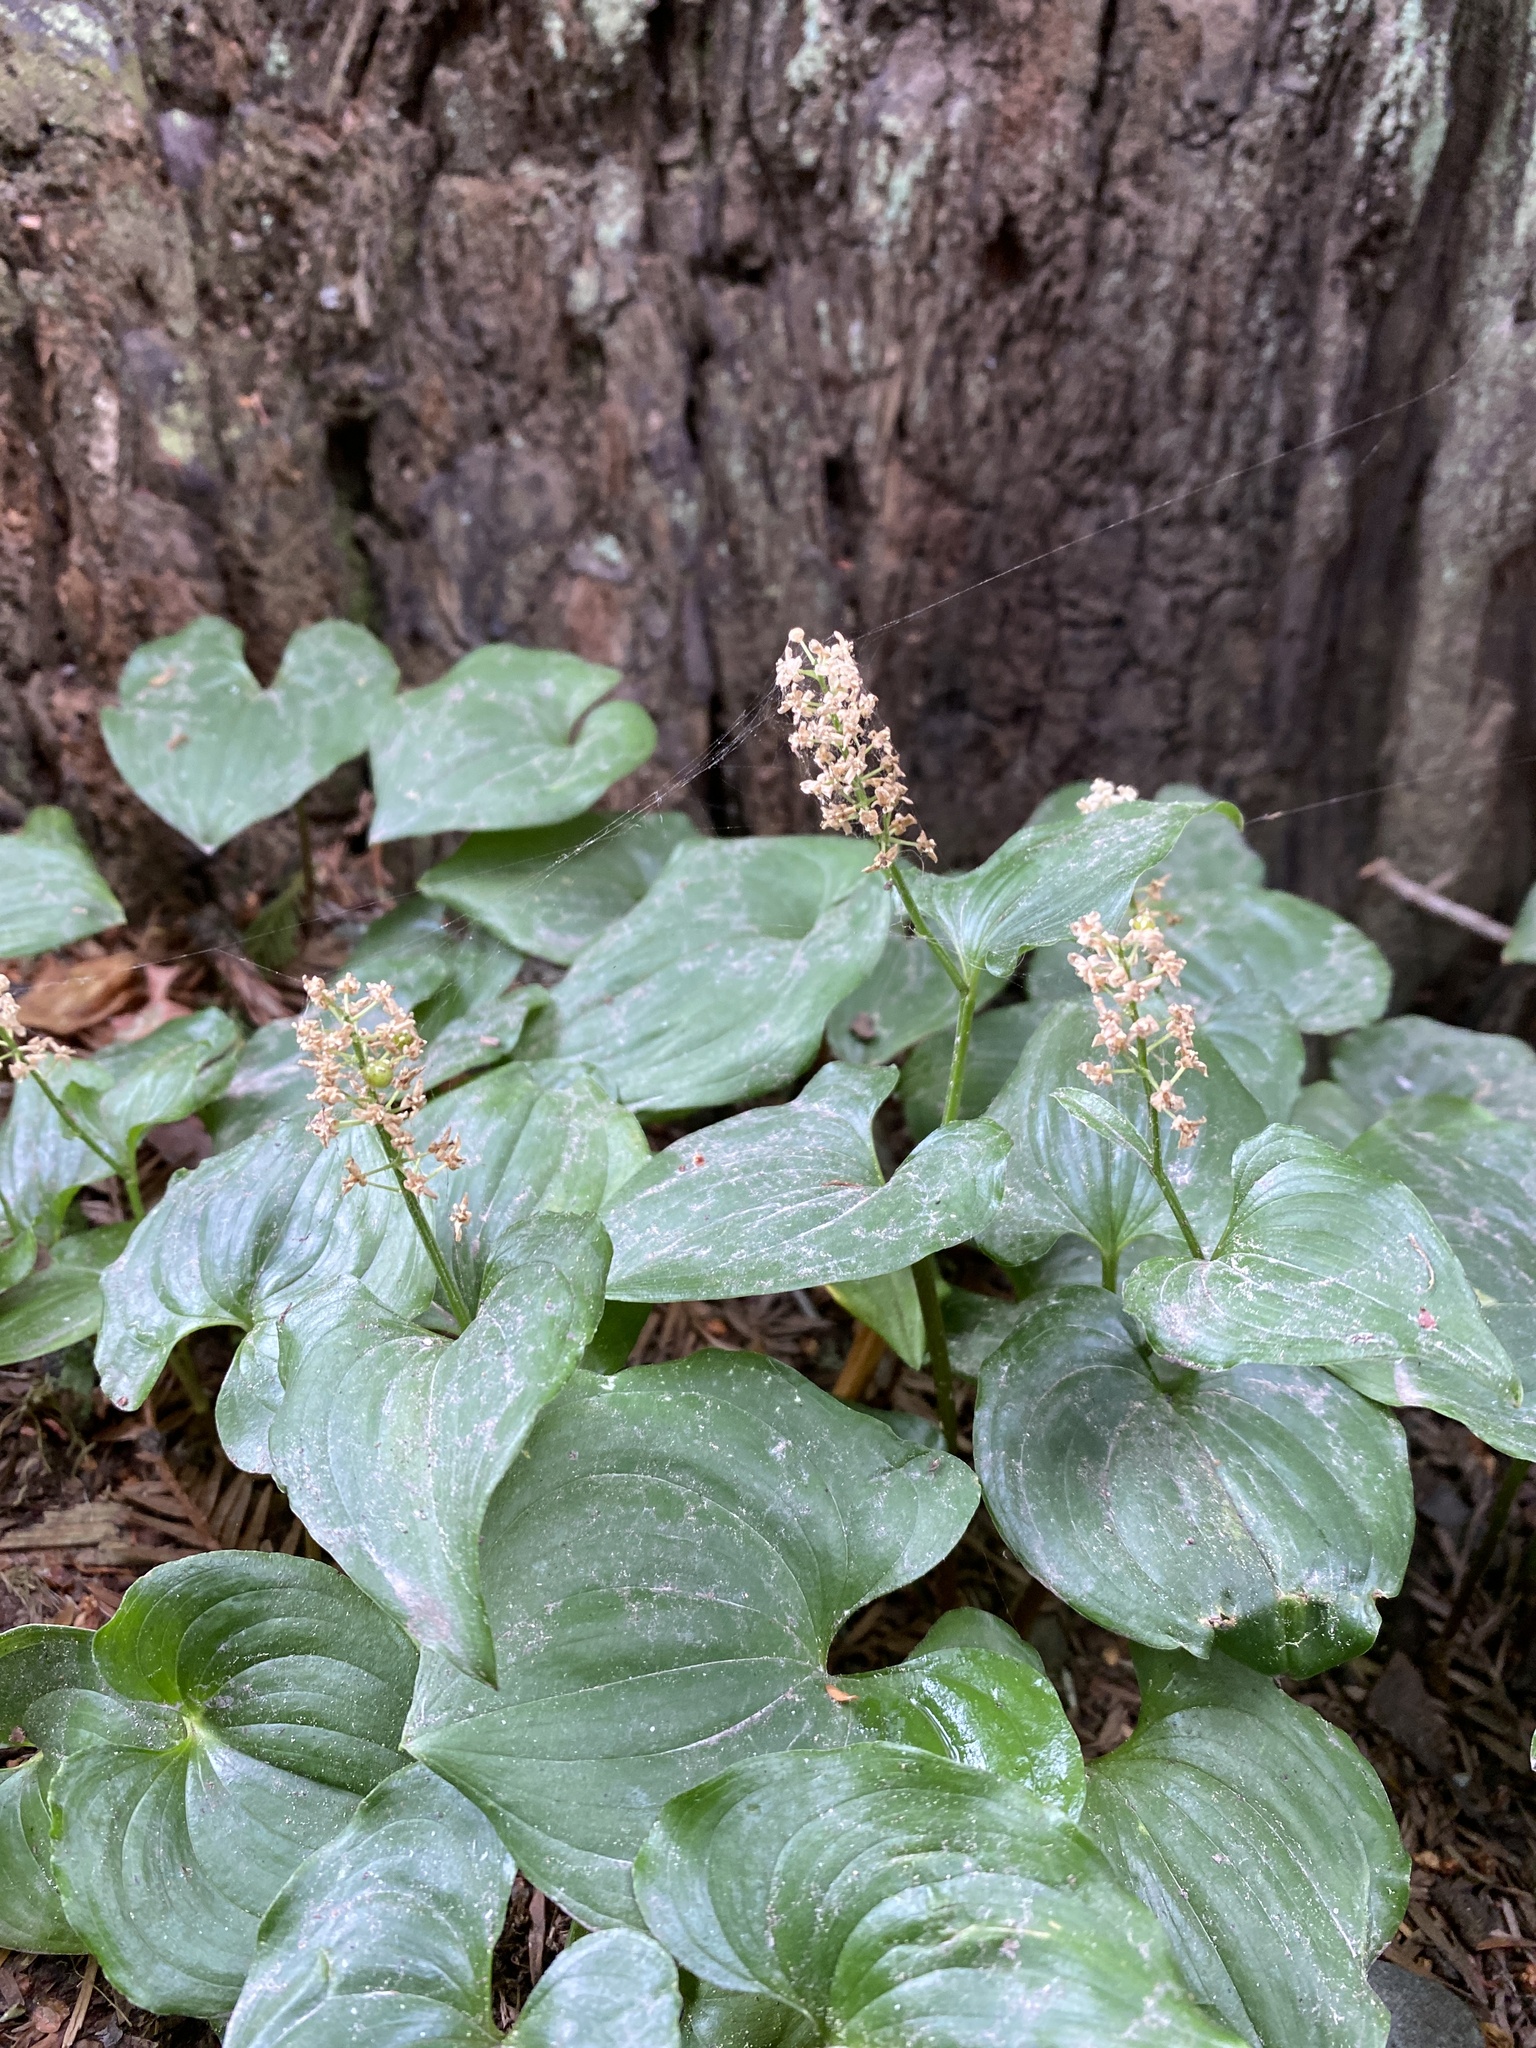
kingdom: Plantae
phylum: Tracheophyta
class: Liliopsida
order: Asparagales
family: Asparagaceae
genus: Maianthemum
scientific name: Maianthemum dilatatum
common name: False lily-of-the-valley
